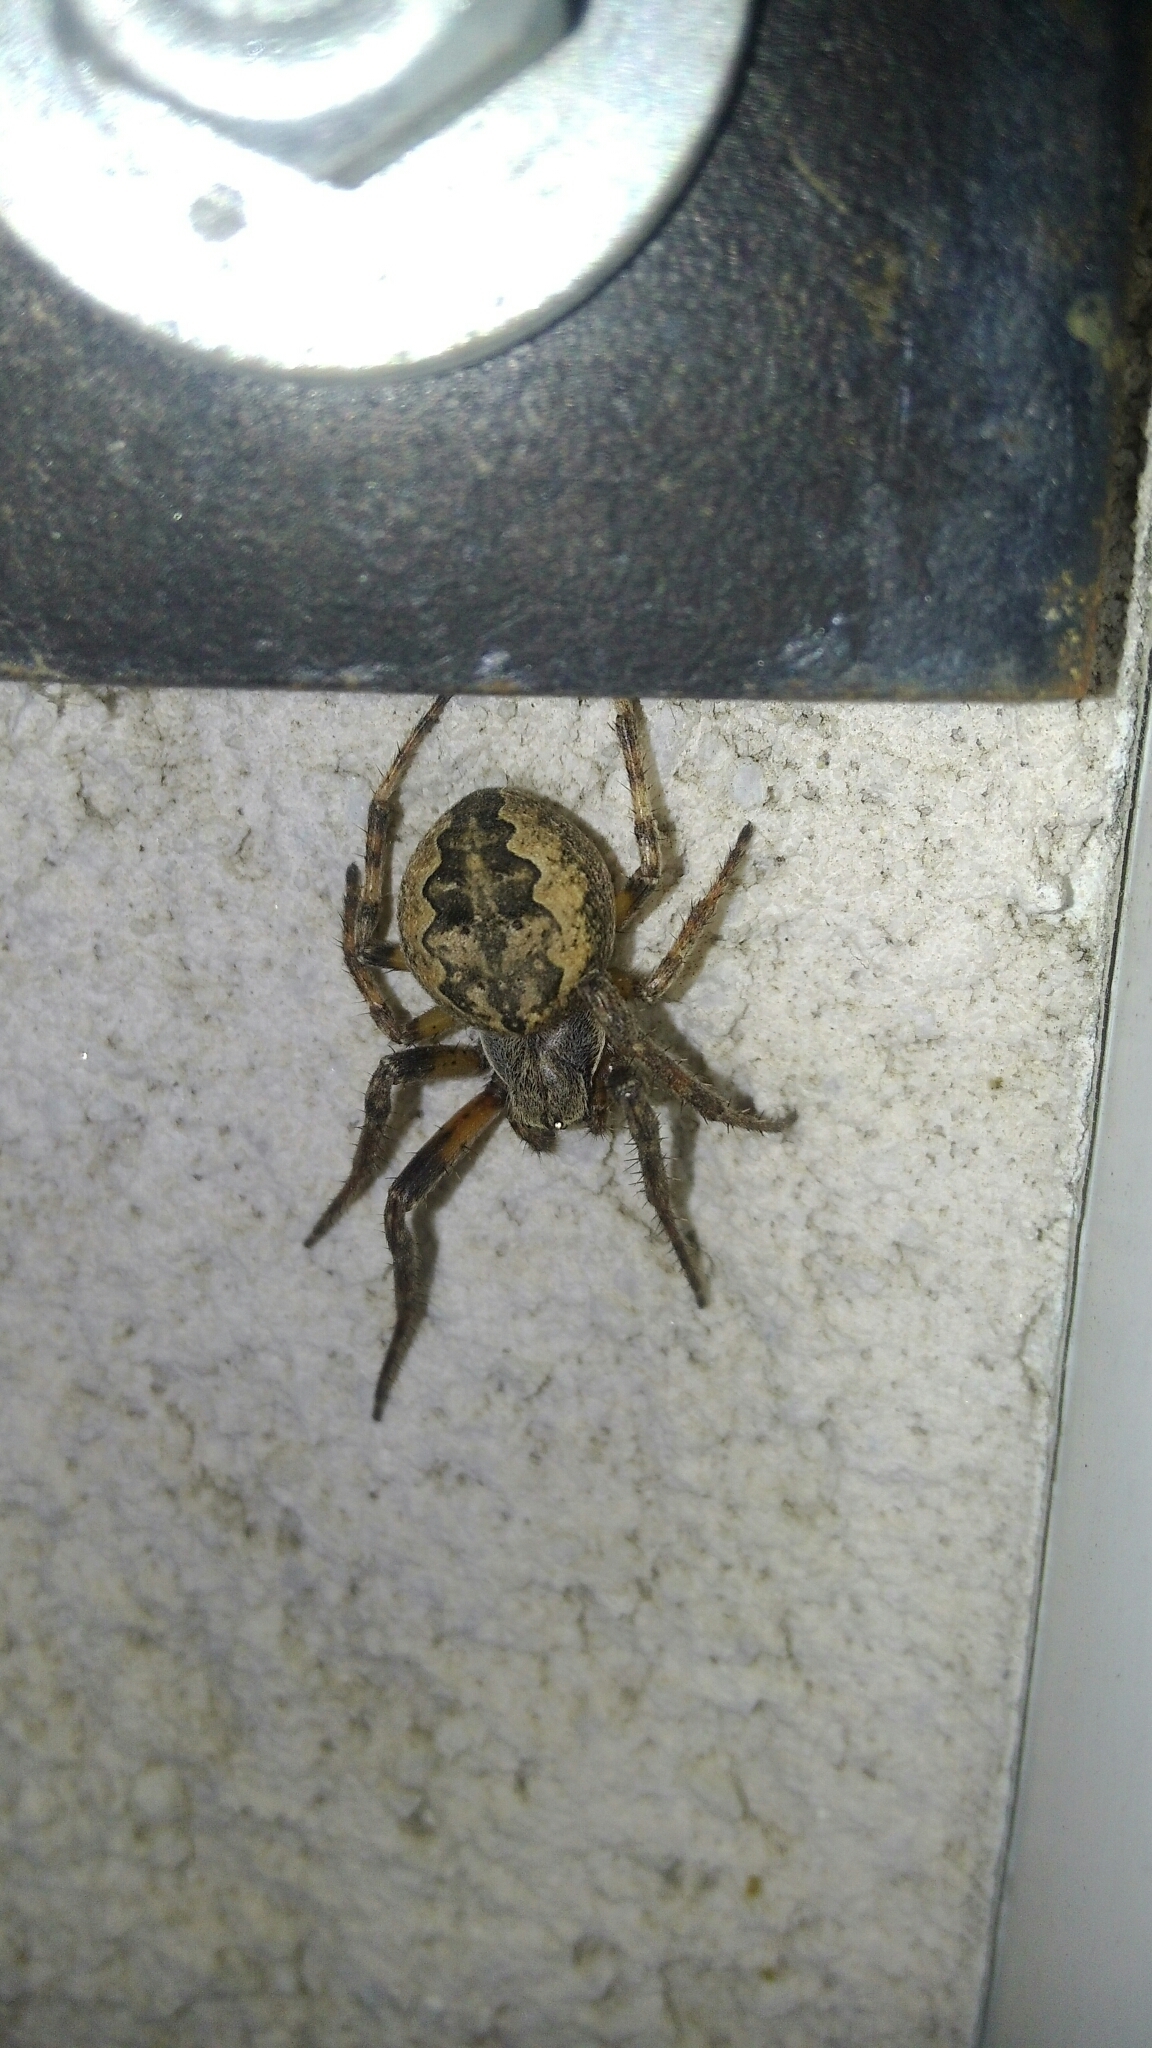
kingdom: Animalia
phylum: Arthropoda
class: Arachnida
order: Araneae
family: Araneidae
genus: Larinioides
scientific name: Larinioides ixobolus
